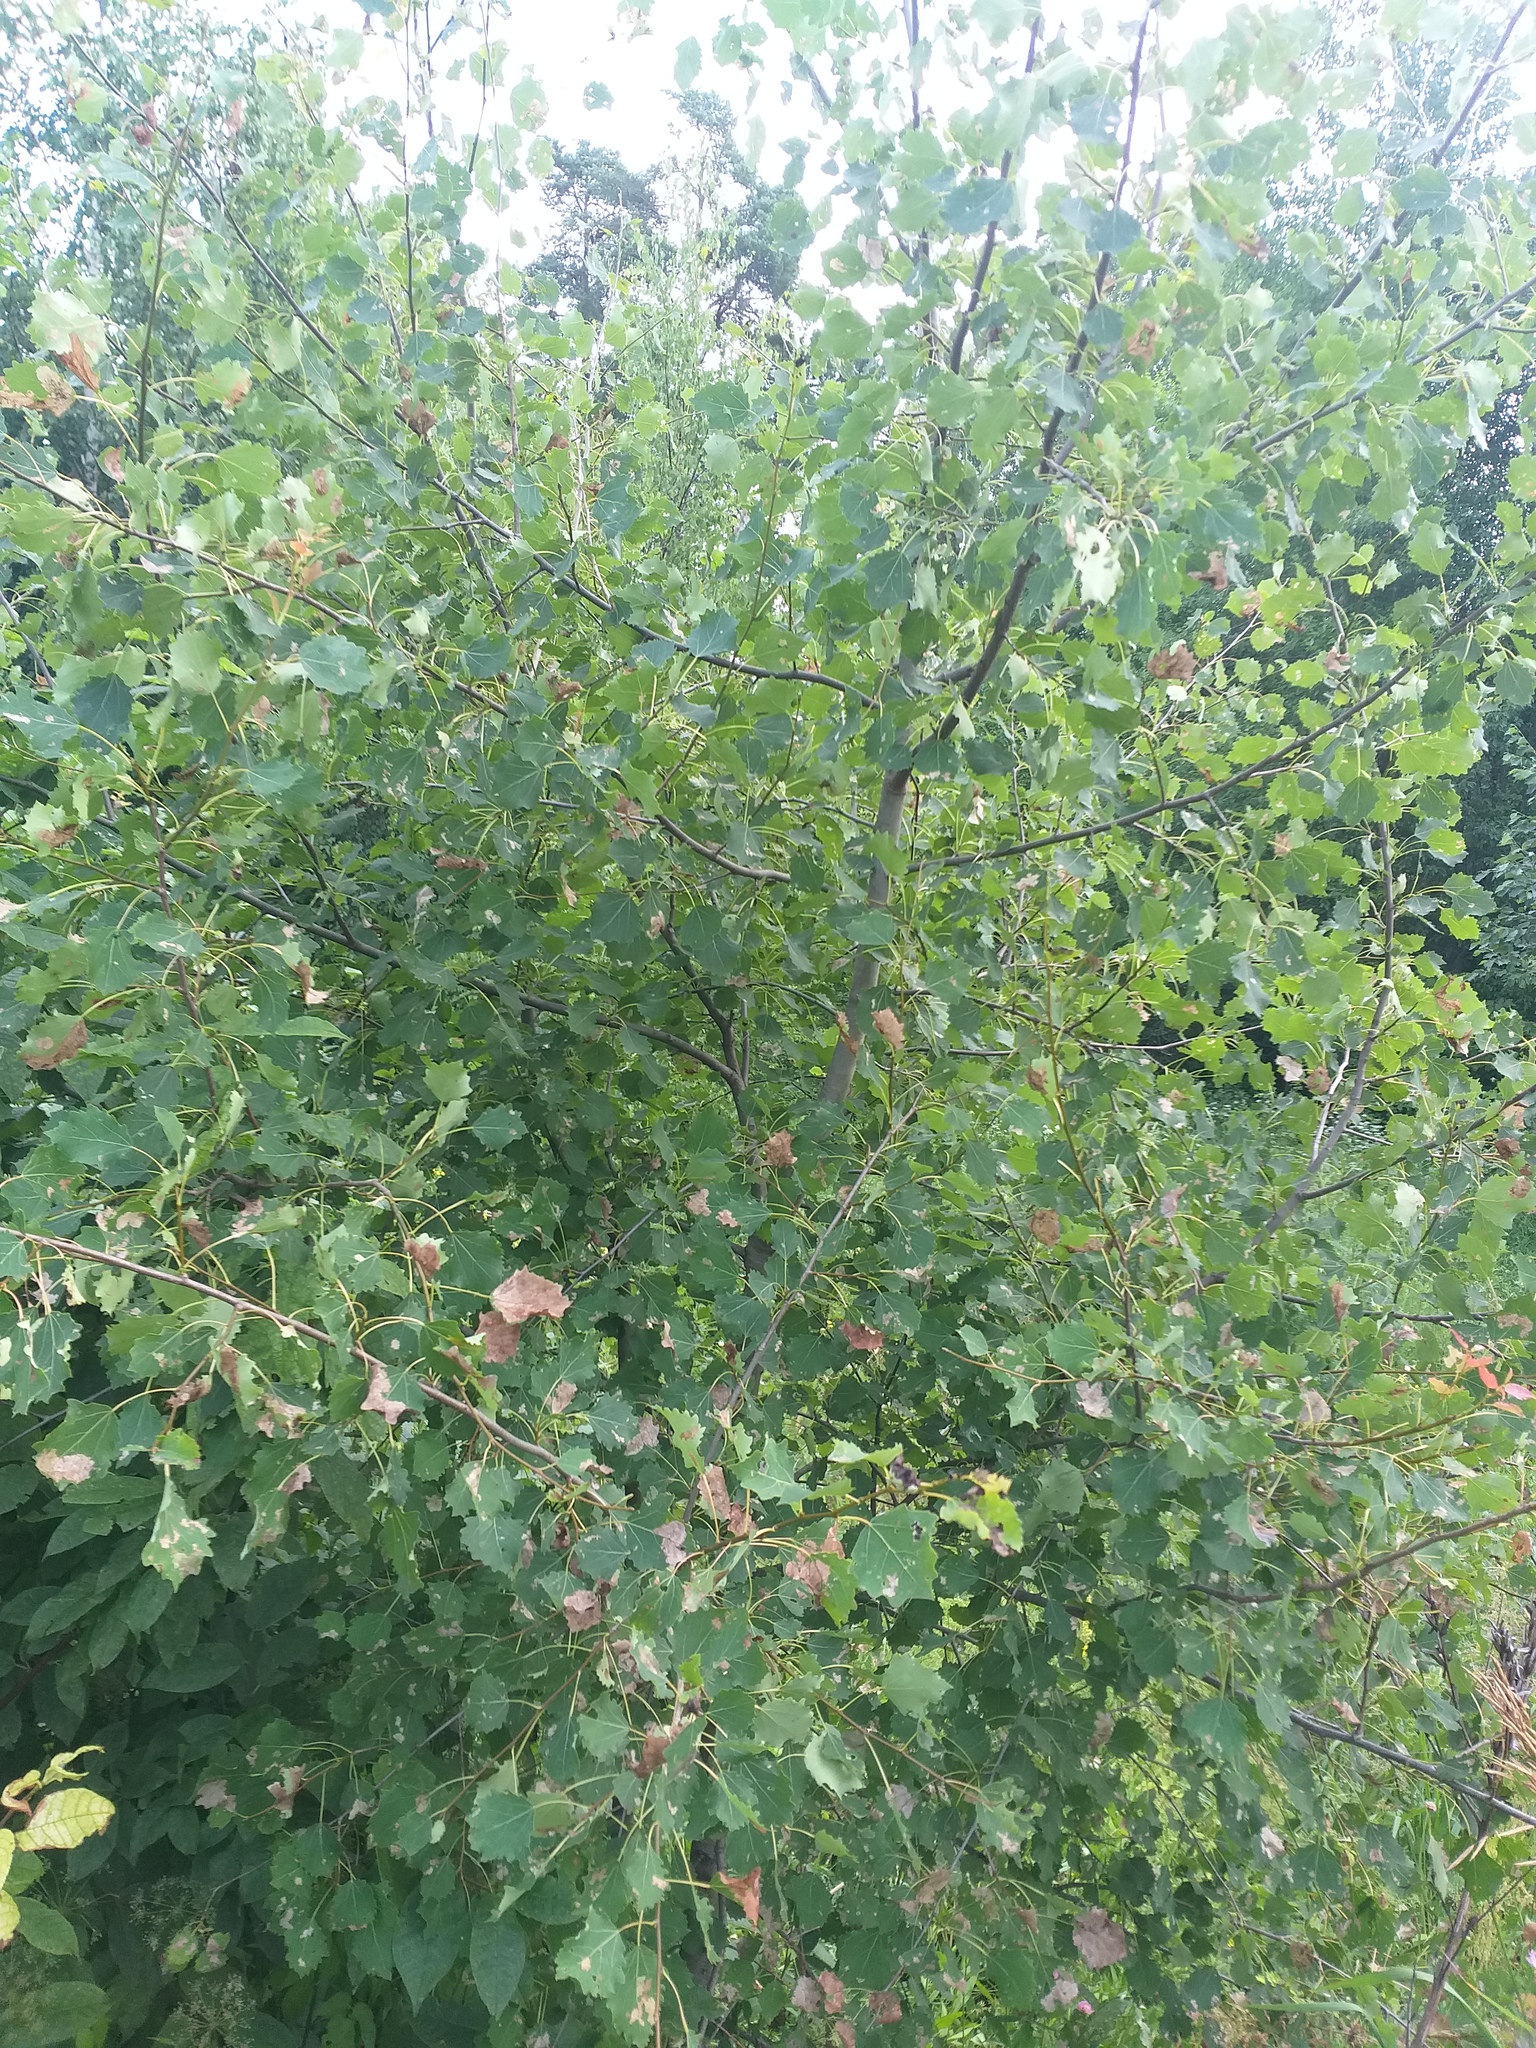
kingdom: Plantae
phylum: Tracheophyta
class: Magnoliopsida
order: Malpighiales
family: Salicaceae
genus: Populus
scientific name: Populus tremula
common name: European aspen
